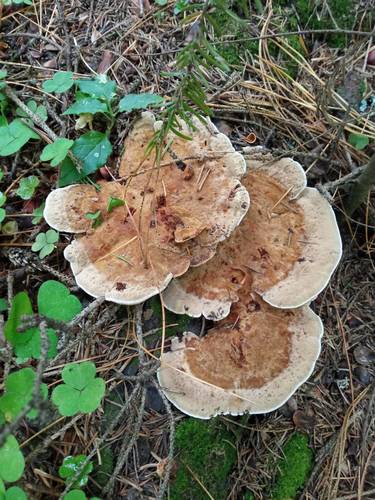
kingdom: Fungi
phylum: Basidiomycota
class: Agaricomycetes
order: Hymenochaetales
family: Hymenochaetaceae
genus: Onnia
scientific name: Onnia
